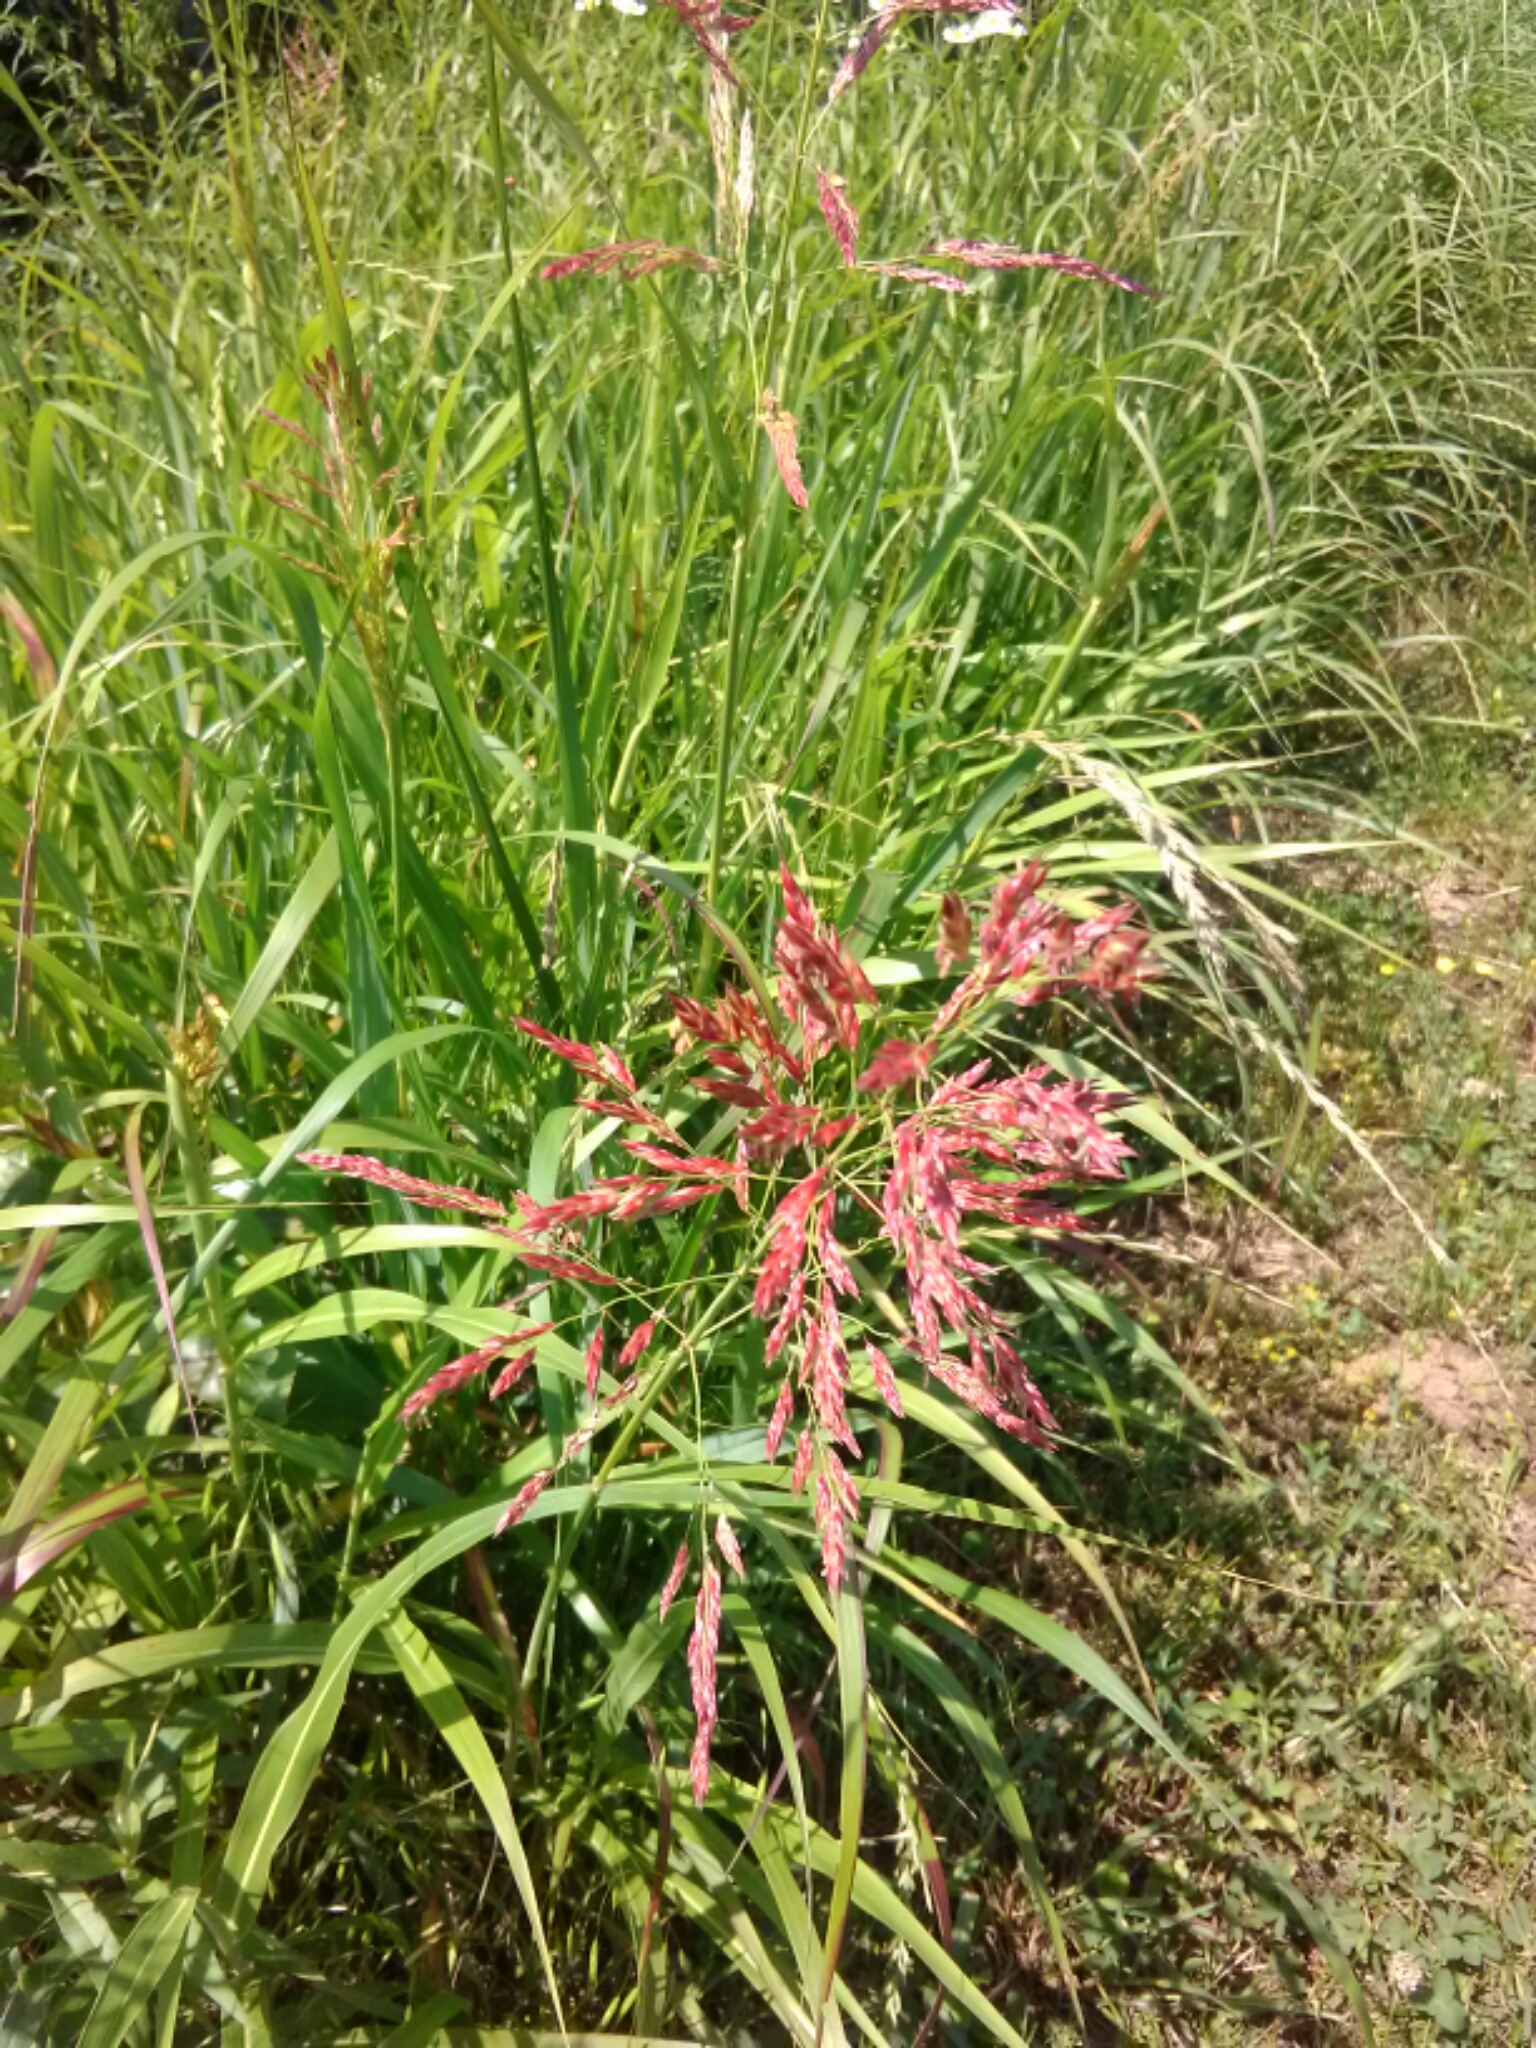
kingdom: Plantae
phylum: Tracheophyta
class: Liliopsida
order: Poales
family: Poaceae
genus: Sorghum
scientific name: Sorghum halepense
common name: Johnson-grass
